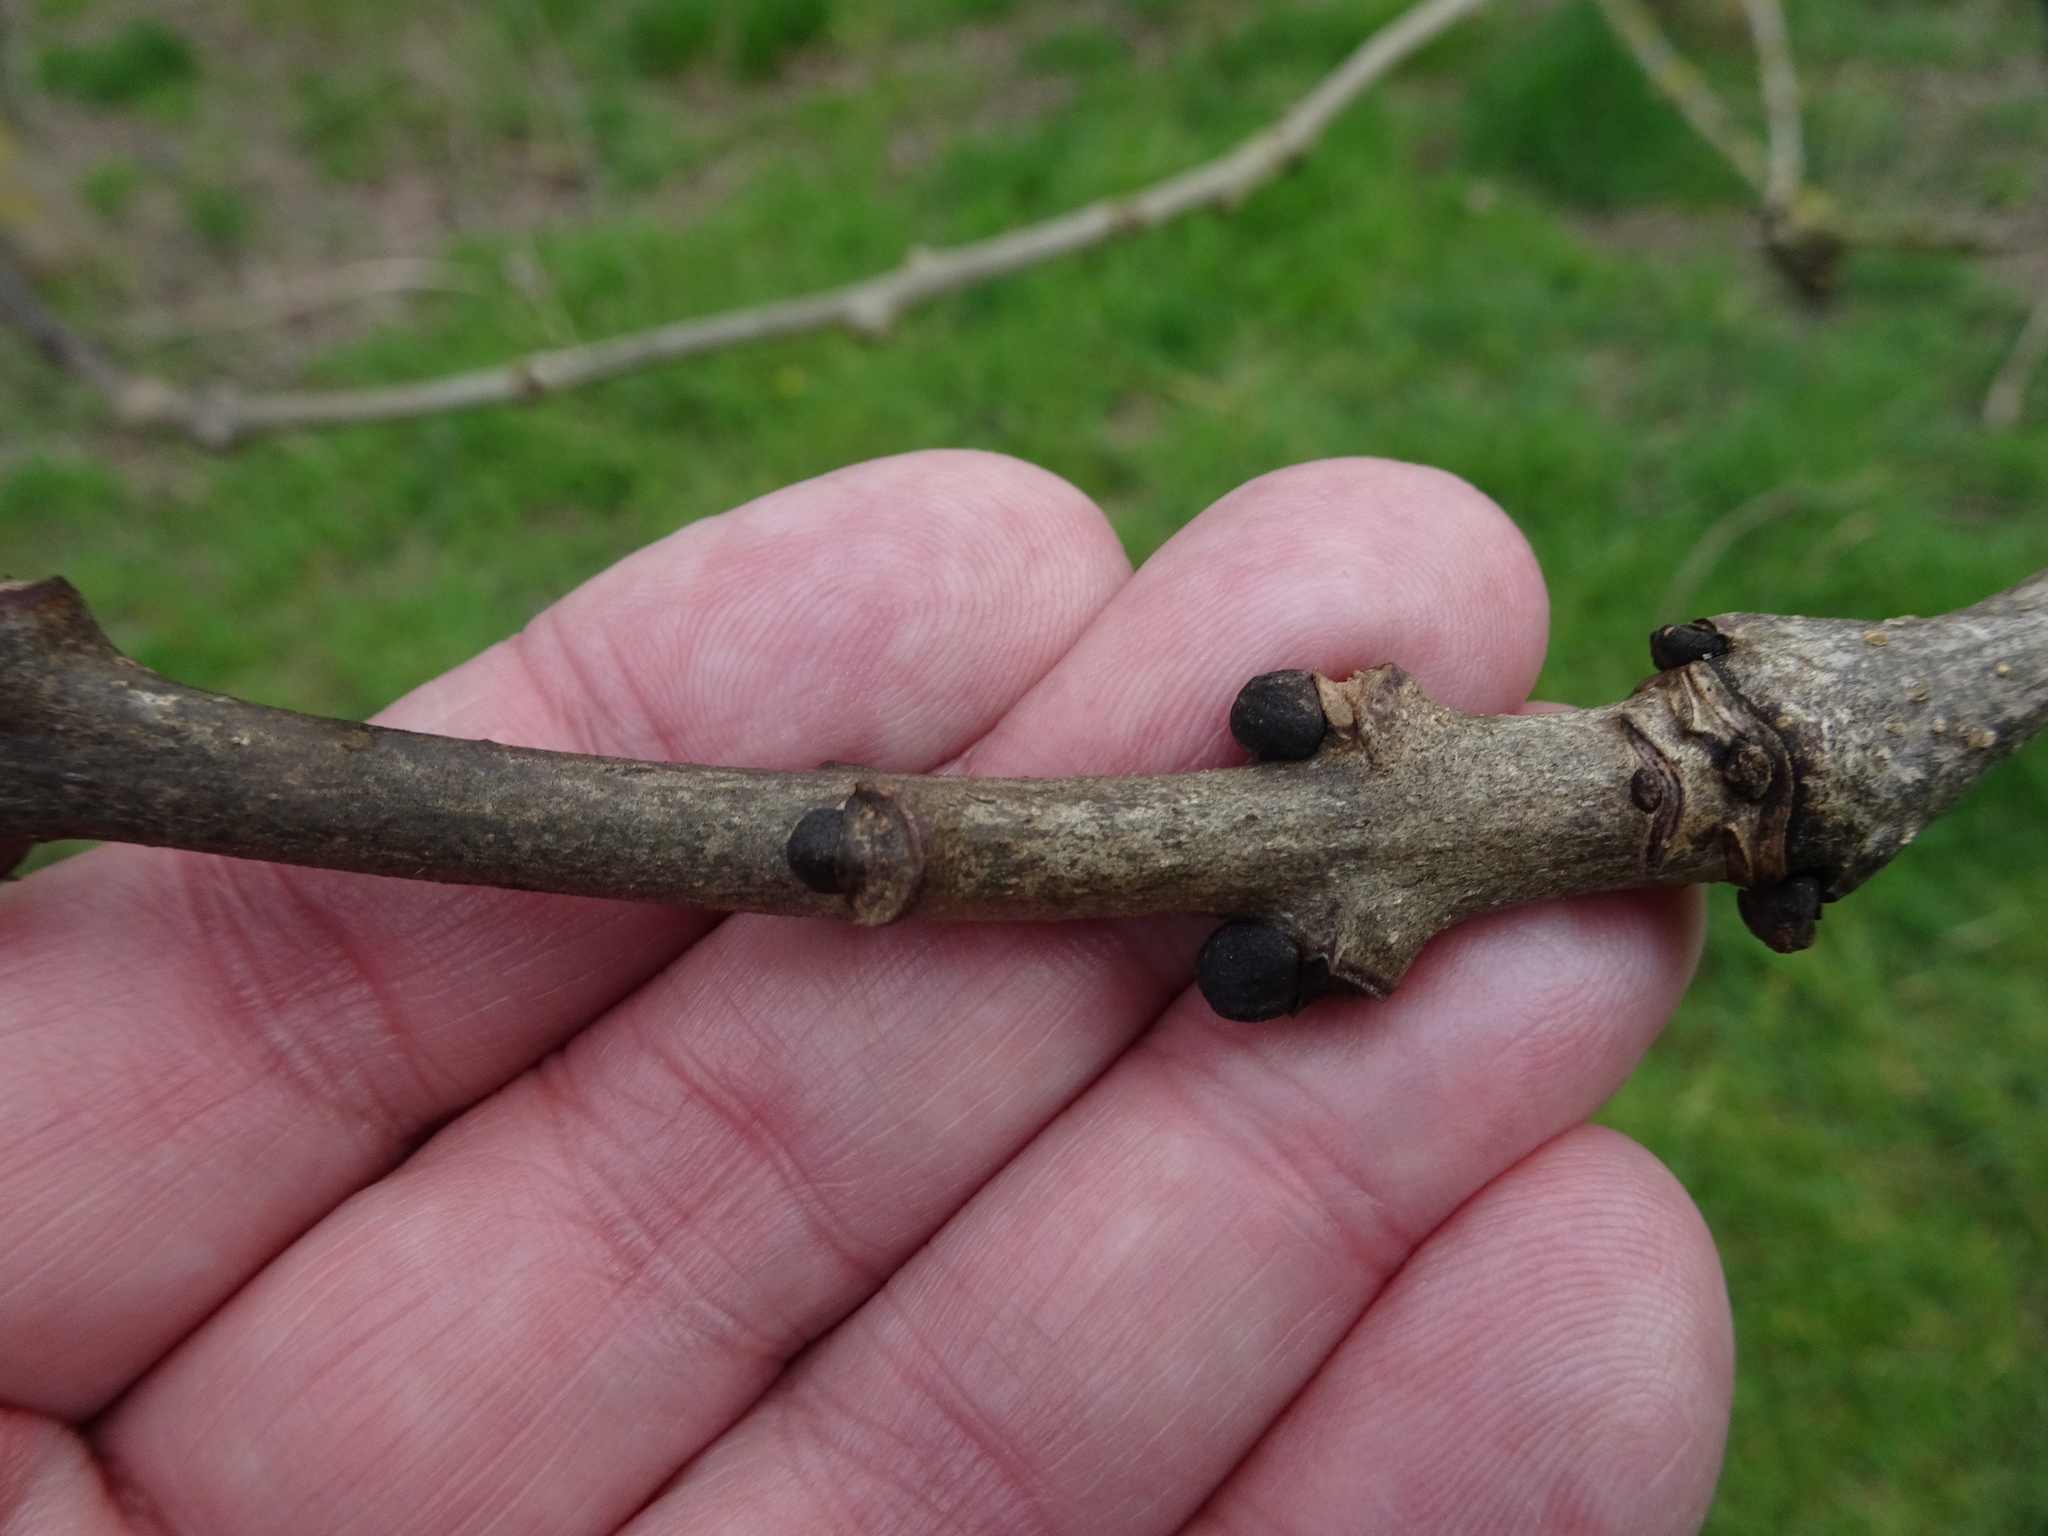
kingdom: Plantae
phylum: Tracheophyta
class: Magnoliopsida
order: Lamiales
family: Oleaceae
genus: Fraxinus
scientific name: Fraxinus excelsior
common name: European ash
